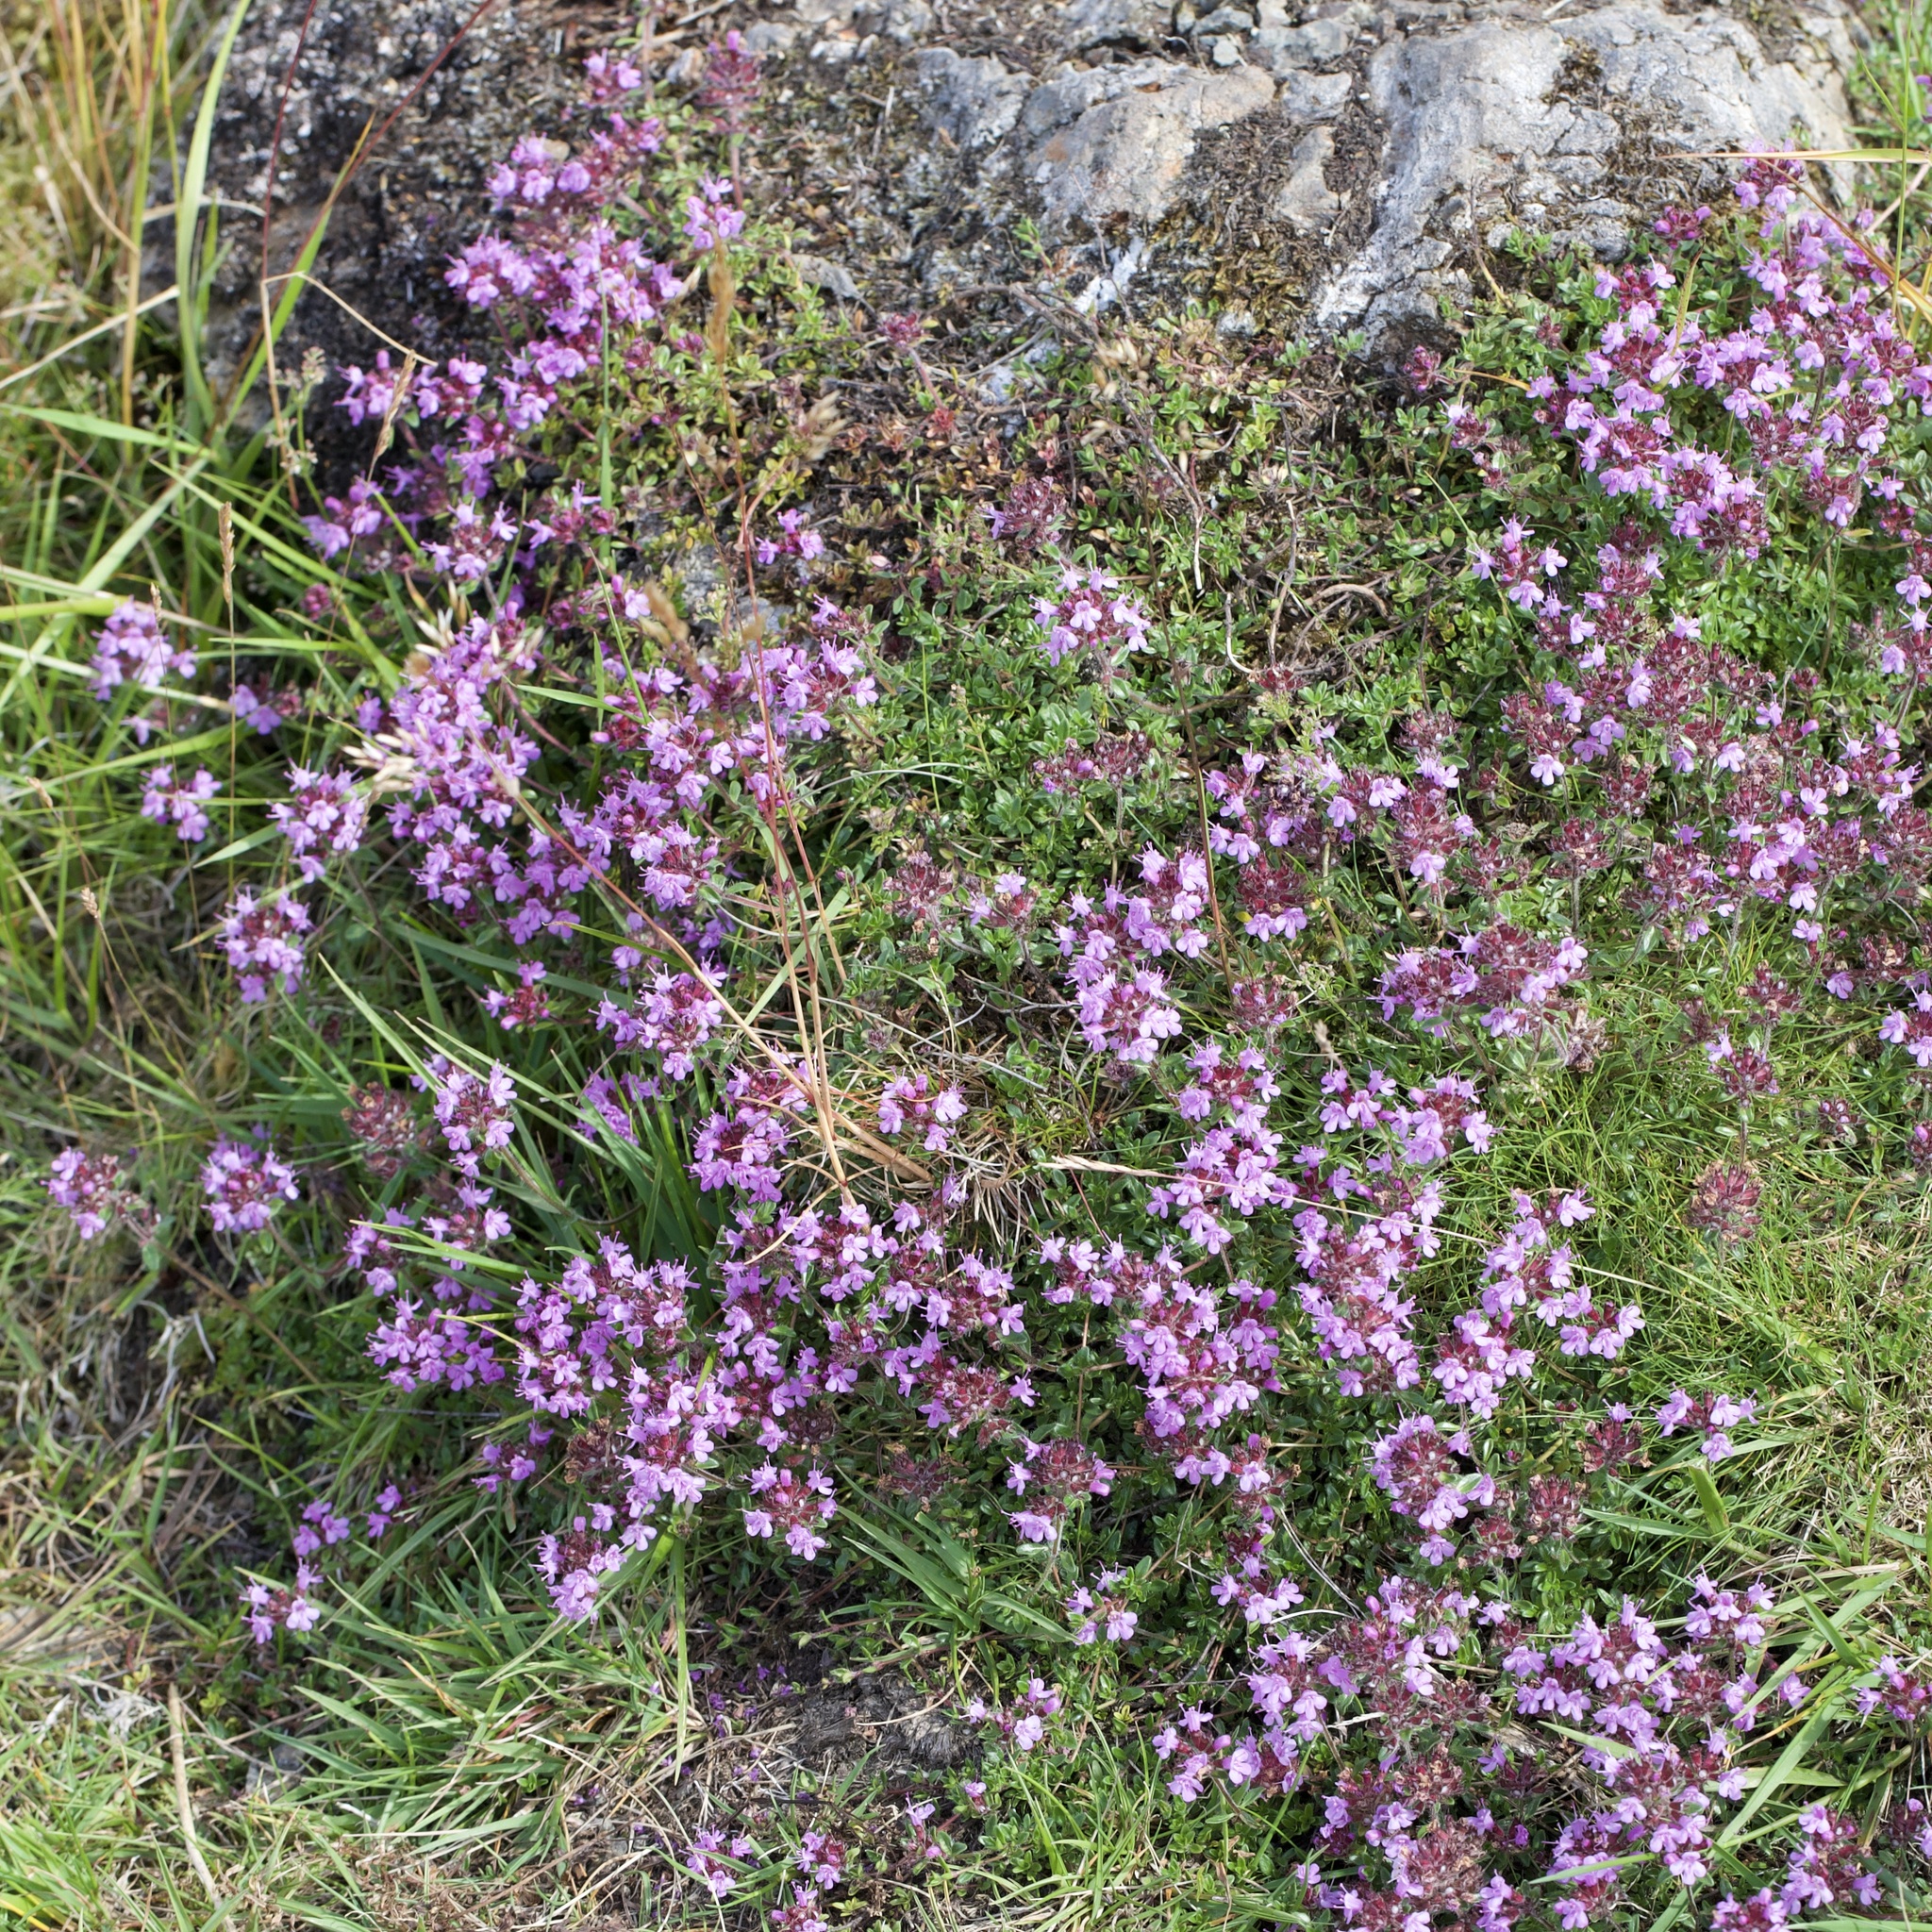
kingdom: Plantae
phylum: Tracheophyta
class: Magnoliopsida
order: Lamiales
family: Lamiaceae
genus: Thymus
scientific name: Thymus praecox
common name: Wild thyme
